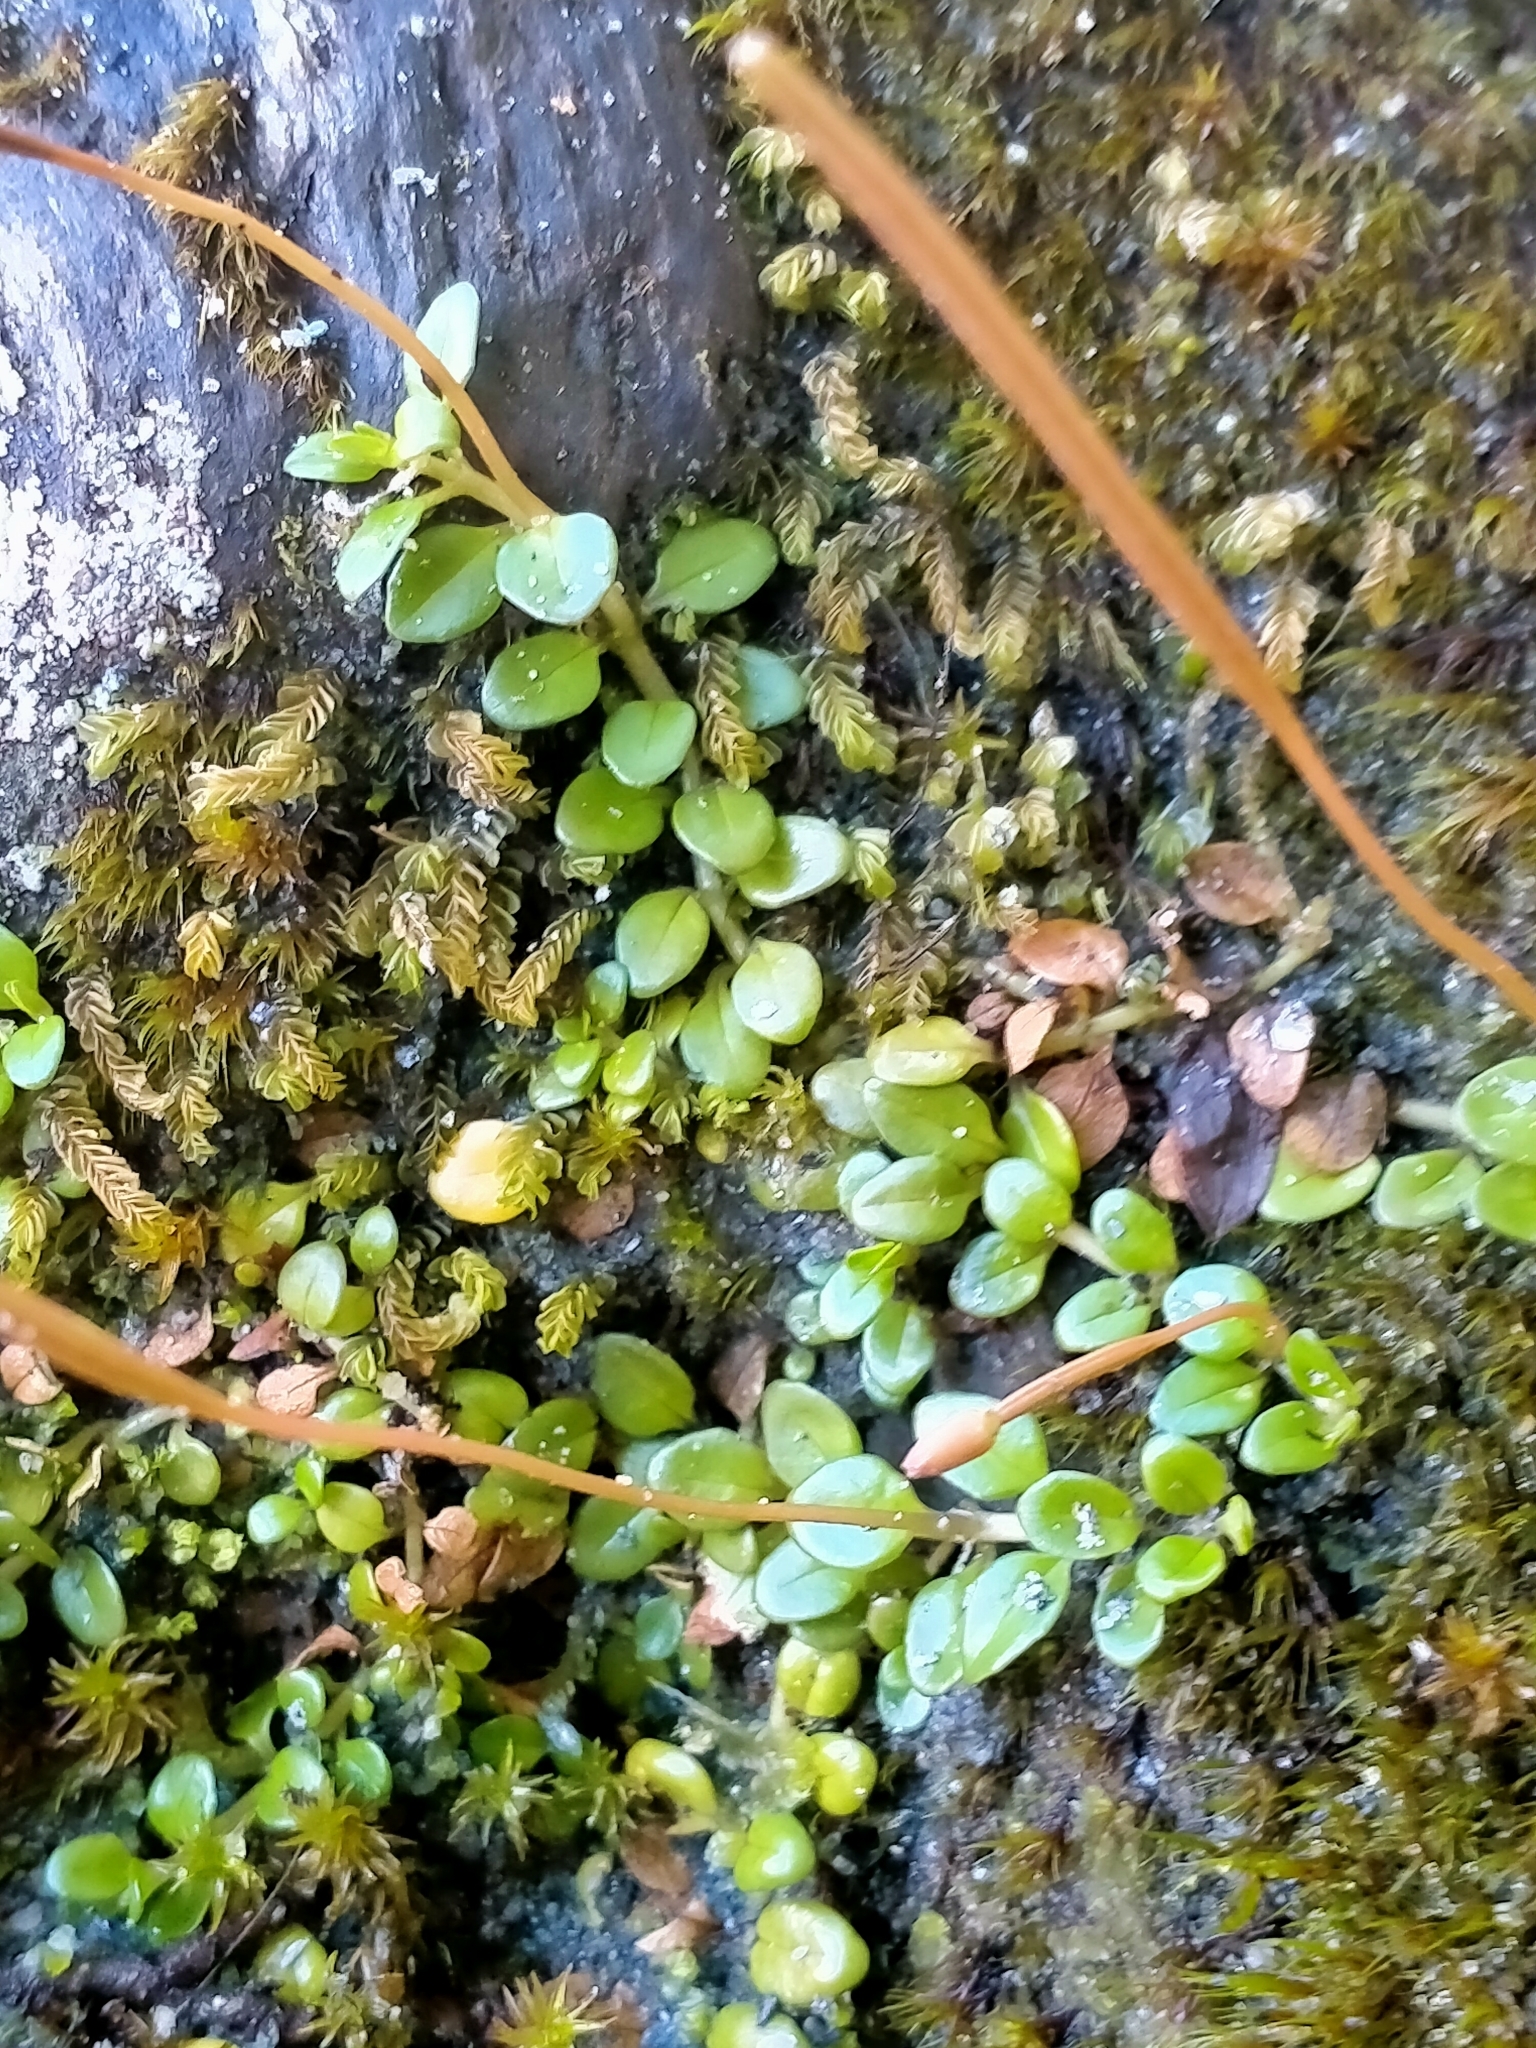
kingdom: Plantae
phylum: Tracheophyta
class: Magnoliopsida
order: Myrtales
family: Onagraceae
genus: Epilobium
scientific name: Epilobium brunnescens
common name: New zealand willowherb
